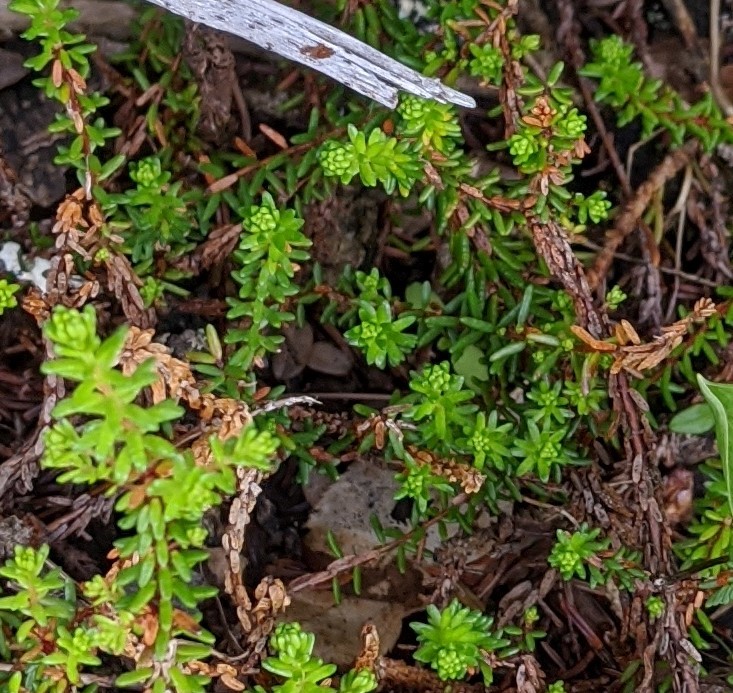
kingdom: Plantae
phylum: Tracheophyta
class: Magnoliopsida
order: Ericales
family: Ericaceae
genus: Empetrum
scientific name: Empetrum nigrum
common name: Black crowberry
